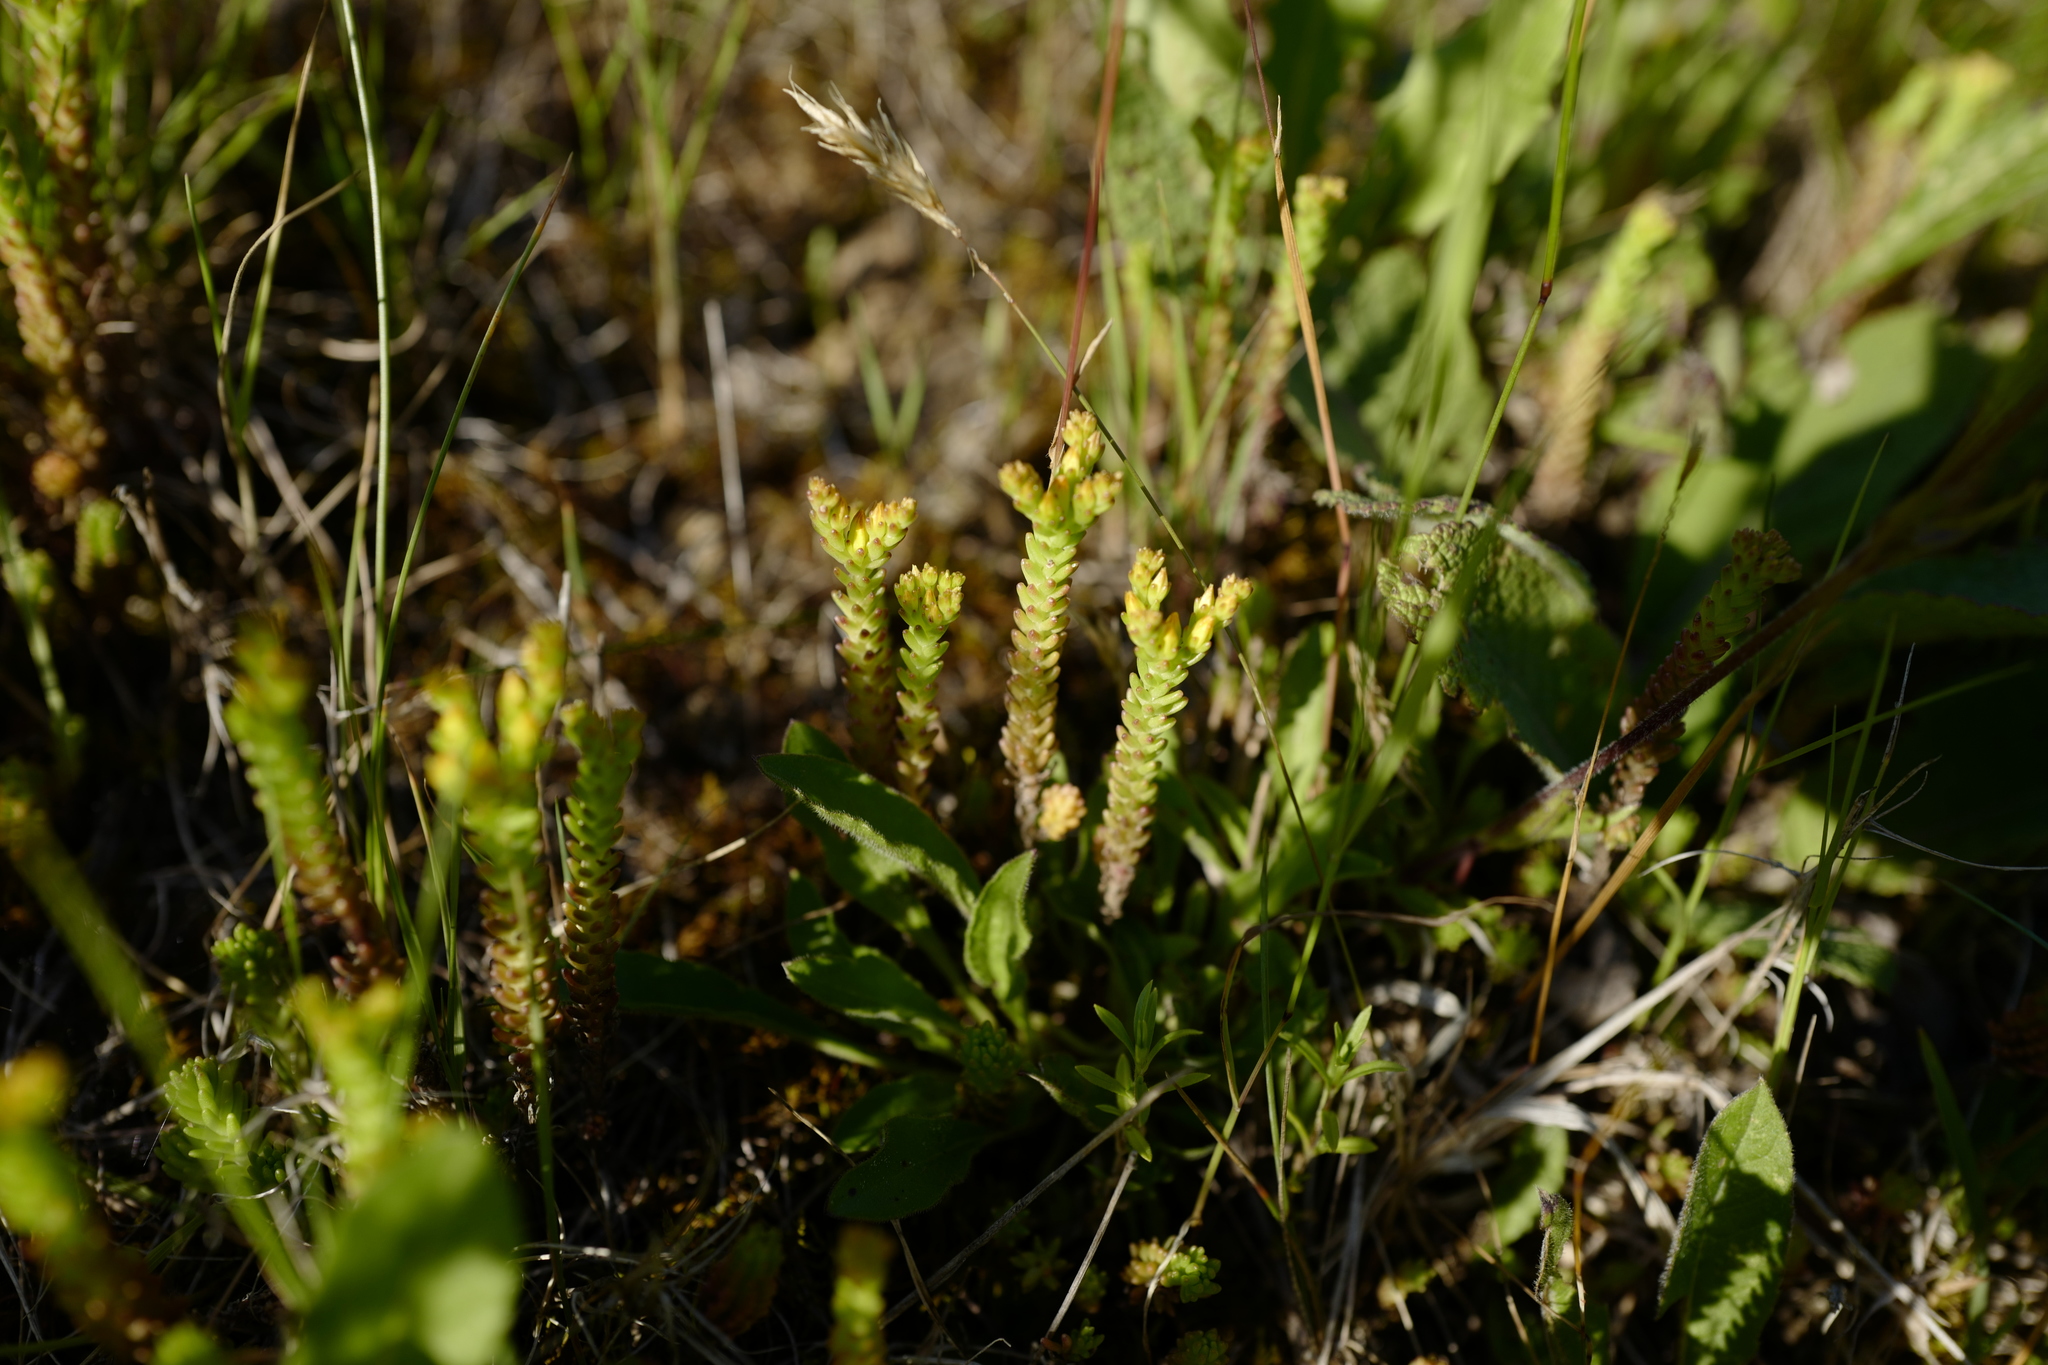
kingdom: Plantae
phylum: Tracheophyta
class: Magnoliopsida
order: Saxifragales
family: Crassulaceae
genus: Sedum
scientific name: Sedum sexangulare
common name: Tasteless stonecrop
